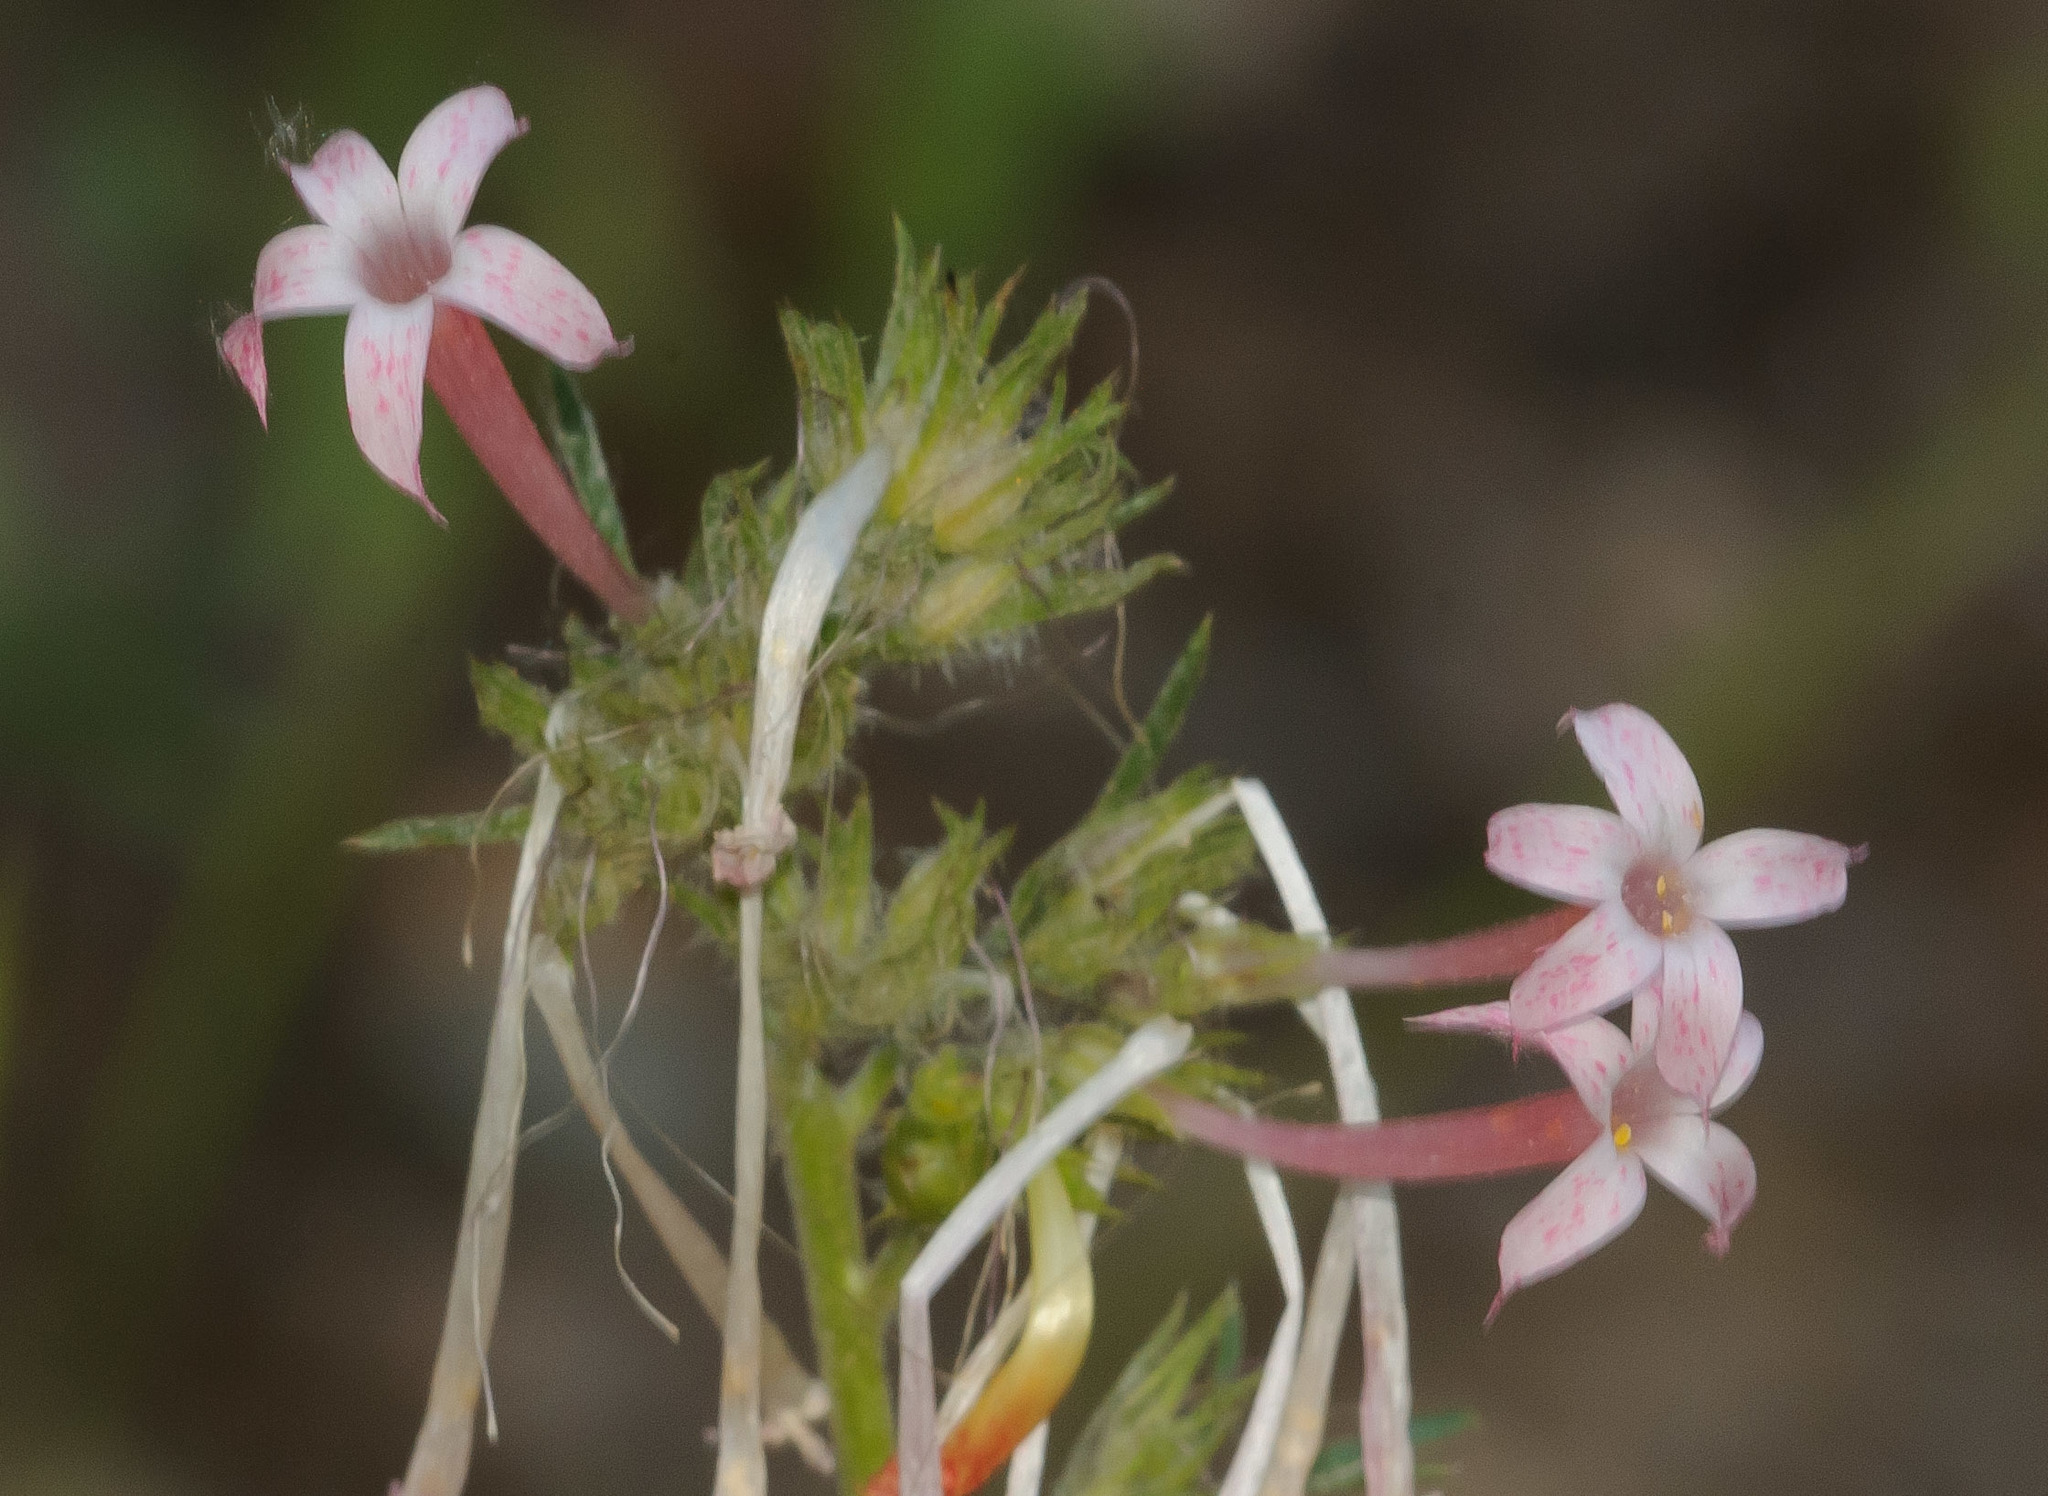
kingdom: Plantae
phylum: Tracheophyta
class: Magnoliopsida
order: Ericales
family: Polemoniaceae
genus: Ipomopsis
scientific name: Ipomopsis tenuituba
